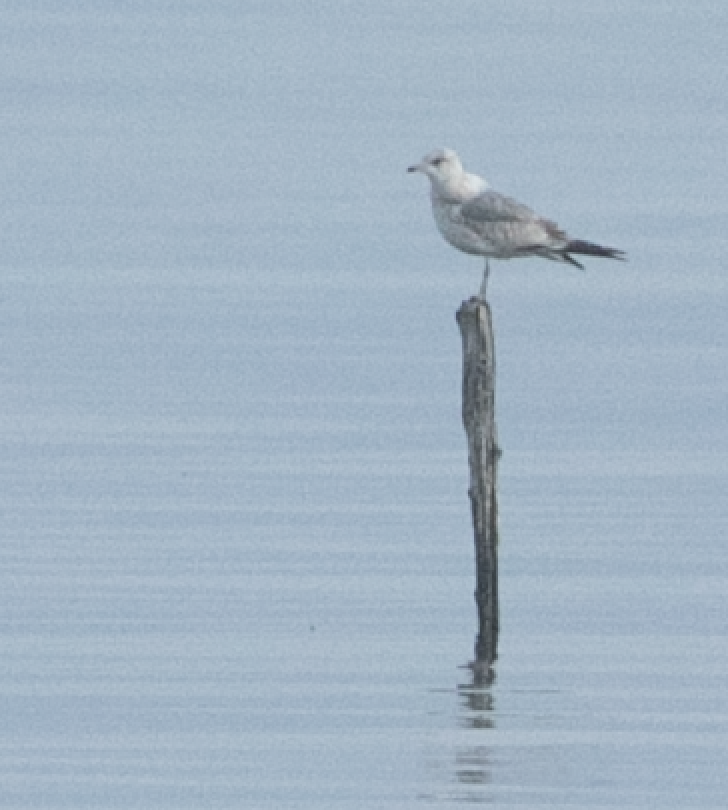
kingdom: Animalia
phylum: Chordata
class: Aves
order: Charadriiformes
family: Laridae
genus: Larus
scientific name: Larus canus
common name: Mew gull
